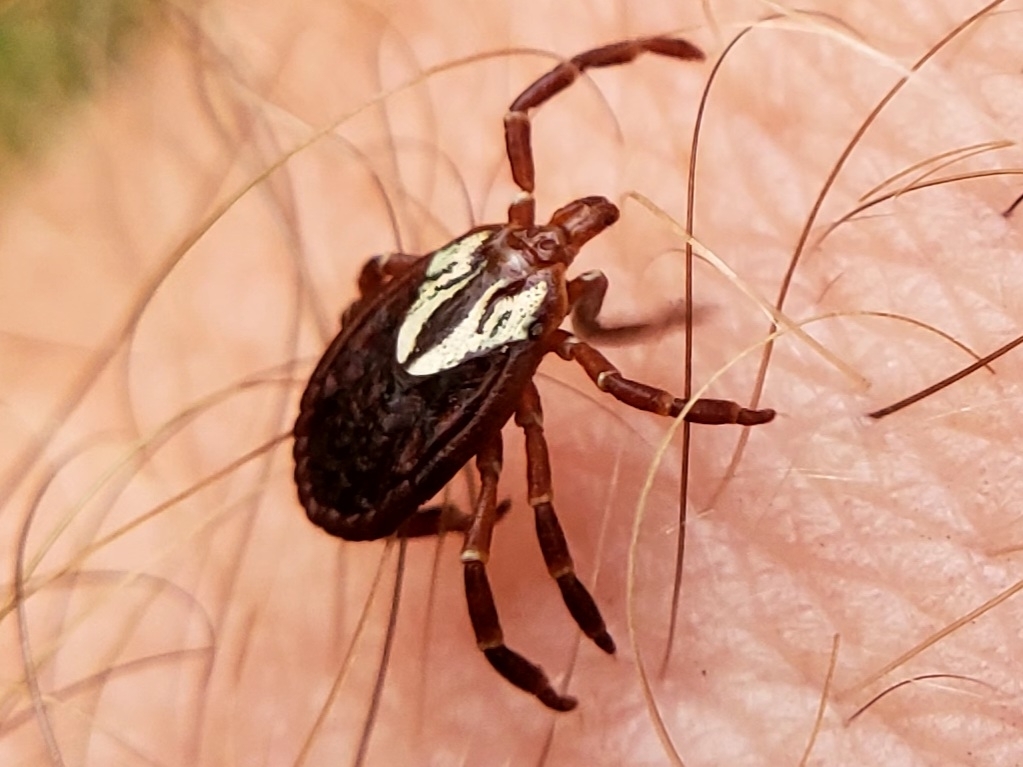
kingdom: Animalia
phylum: Arthropoda
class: Arachnida
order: Ixodida
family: Ixodidae
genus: Amblyomma
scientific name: Amblyomma maculatum
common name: Gulf coast tick
